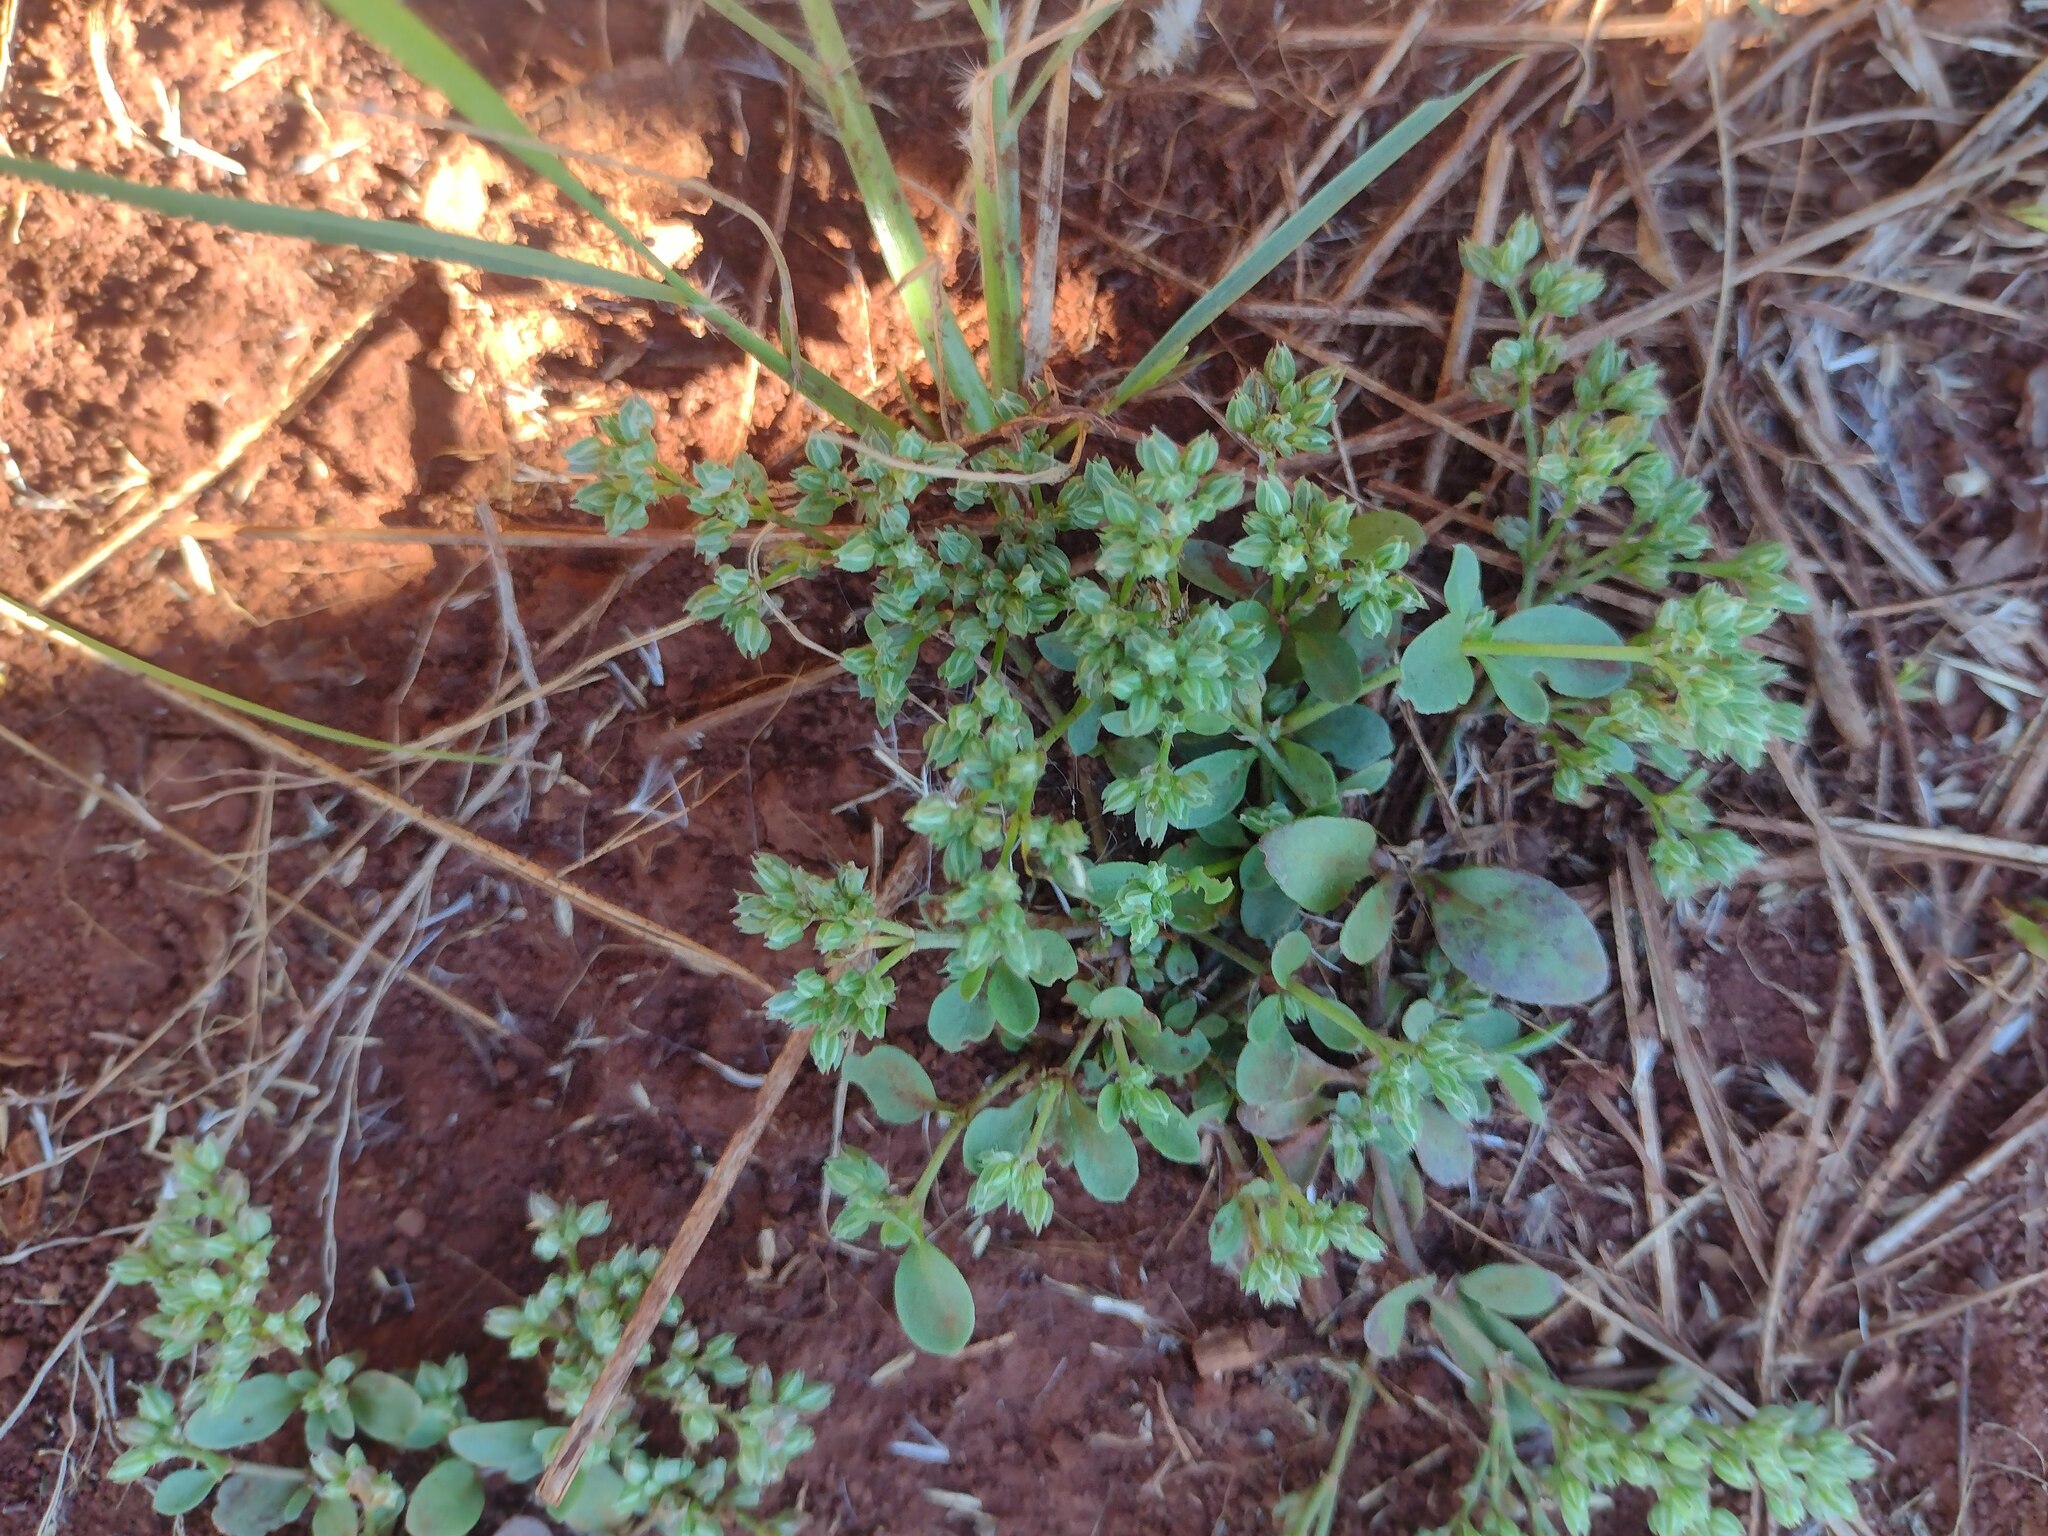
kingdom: Plantae
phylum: Tracheophyta
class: Magnoliopsida
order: Caryophyllales
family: Caryophyllaceae
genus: Polycarpon
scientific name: Polycarpon tetraphyllum
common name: Four-leaved all-seed
